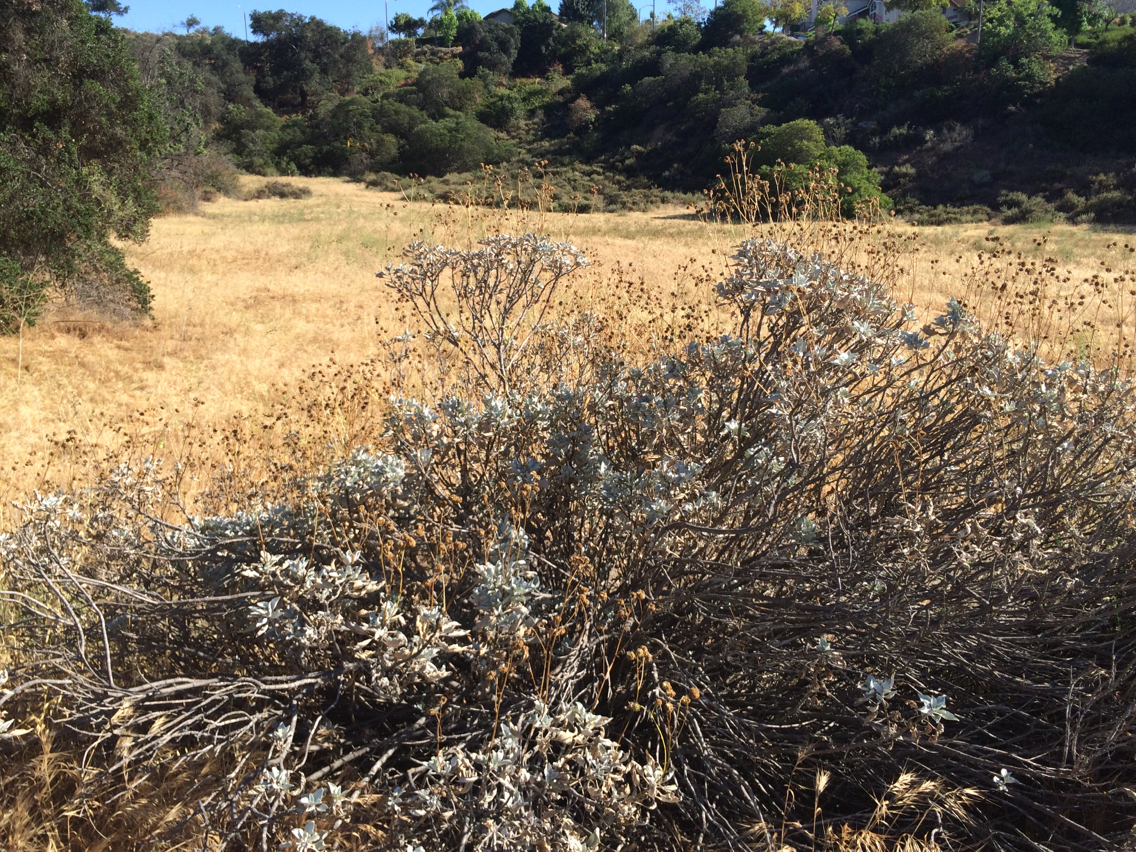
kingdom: Plantae
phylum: Tracheophyta
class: Magnoliopsida
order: Asterales
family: Asteraceae
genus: Encelia
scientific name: Encelia farinosa
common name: Brittlebush
